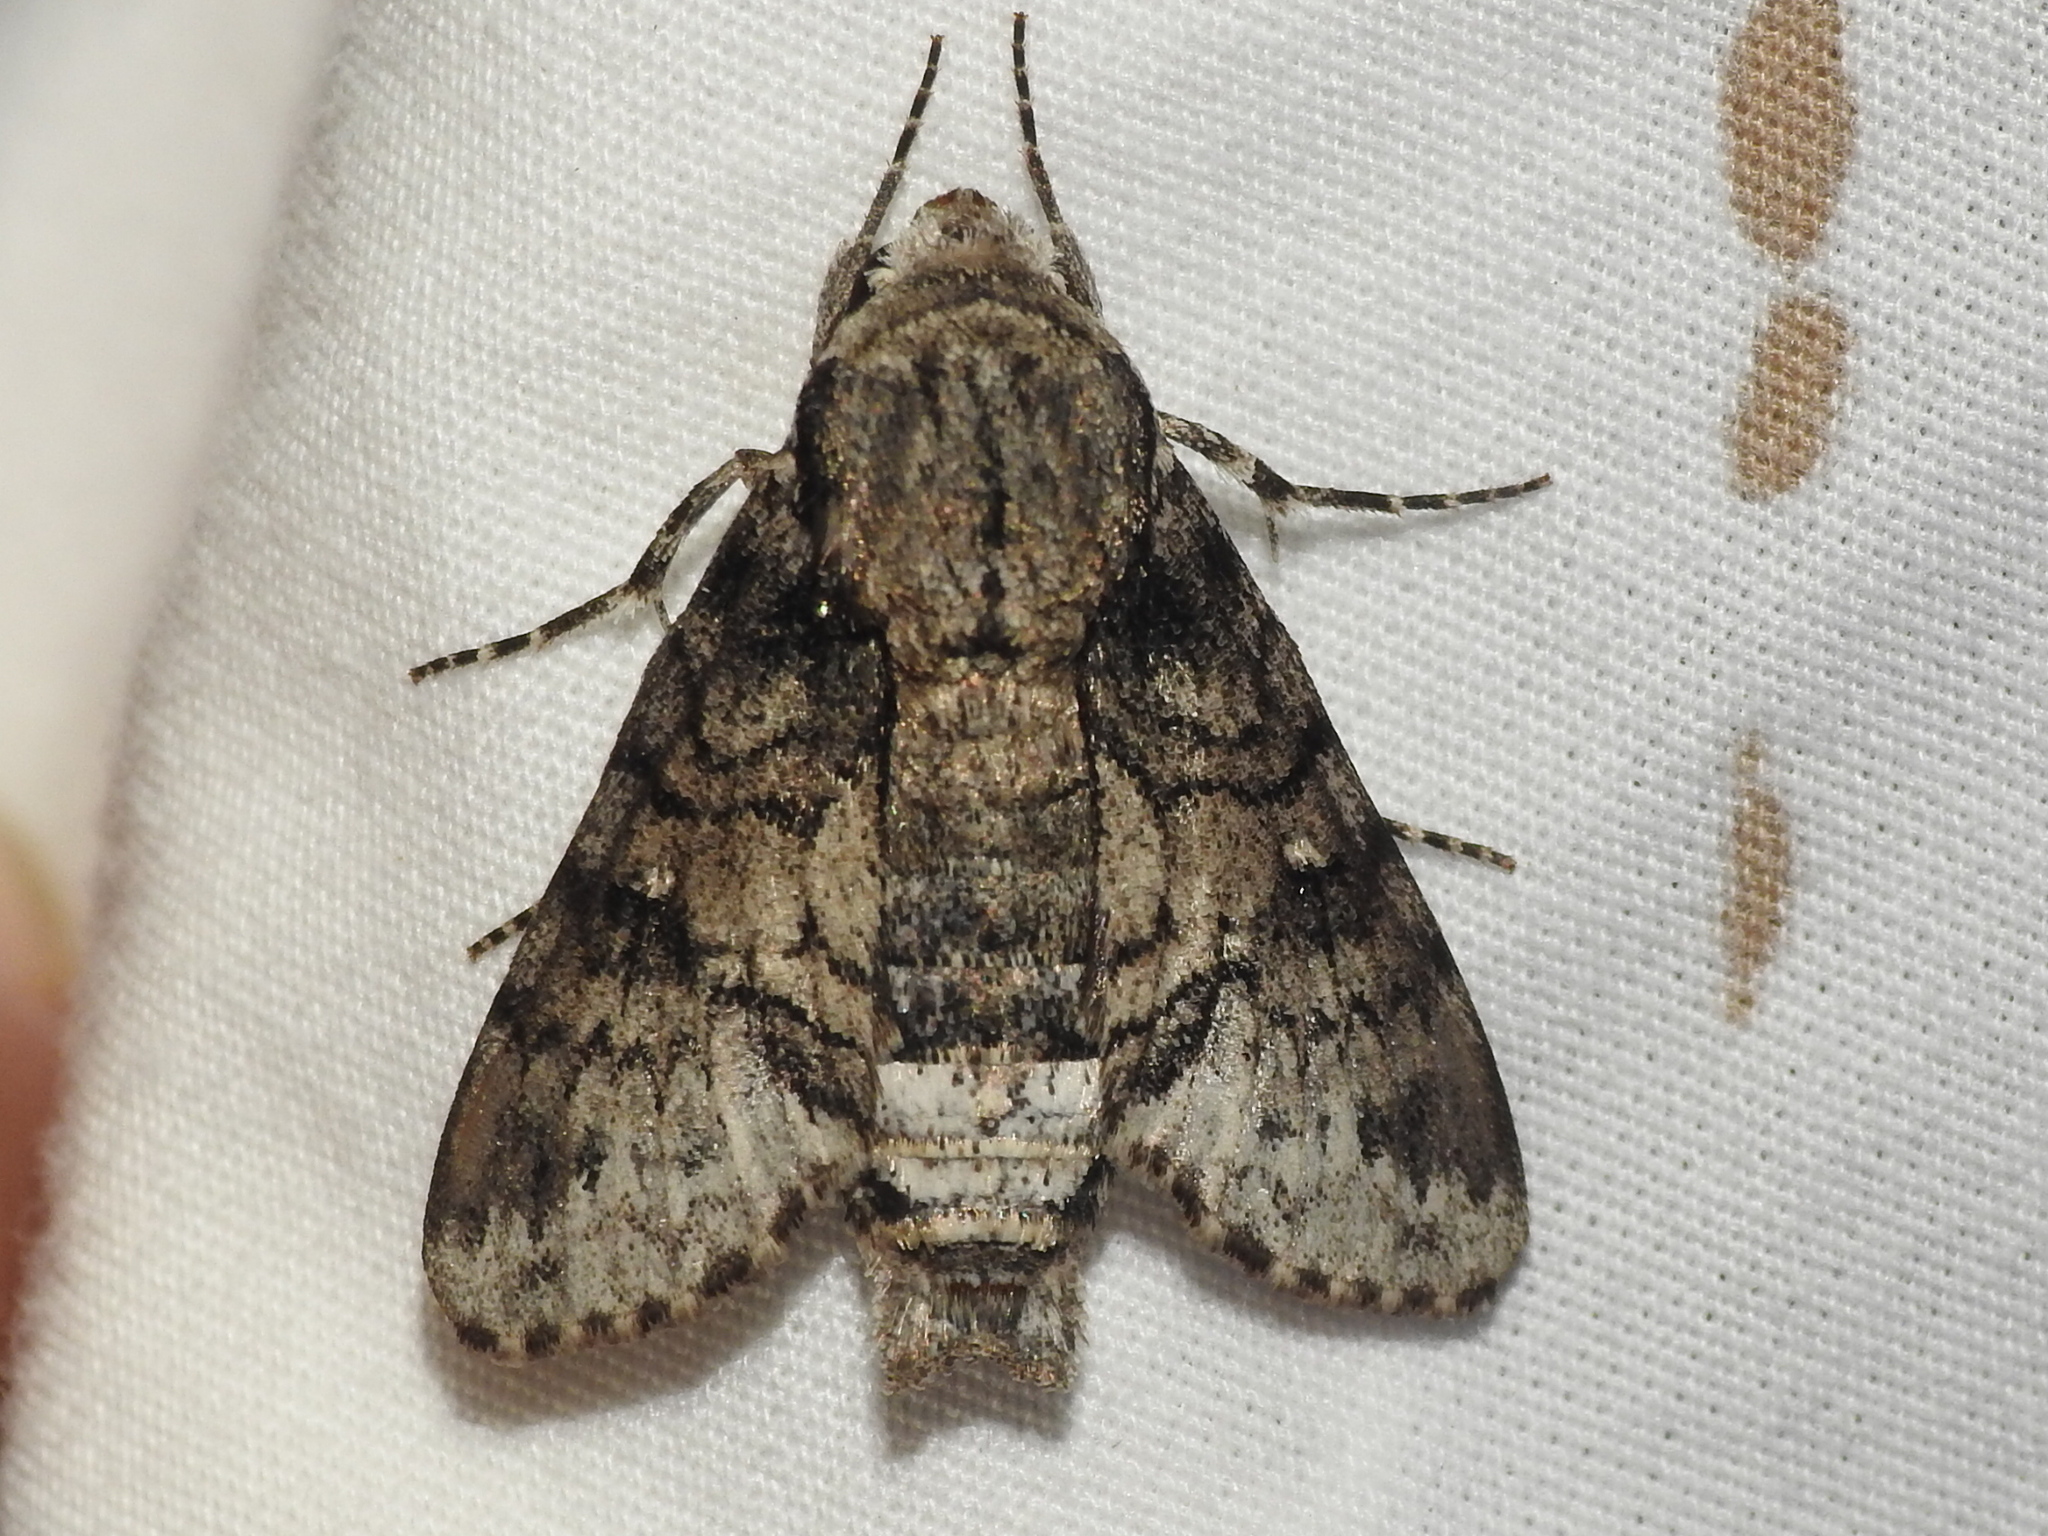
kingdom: Animalia
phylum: Arthropoda
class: Insecta
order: Lepidoptera
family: Sphingidae
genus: Cautethia
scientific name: Cautethia spuria
